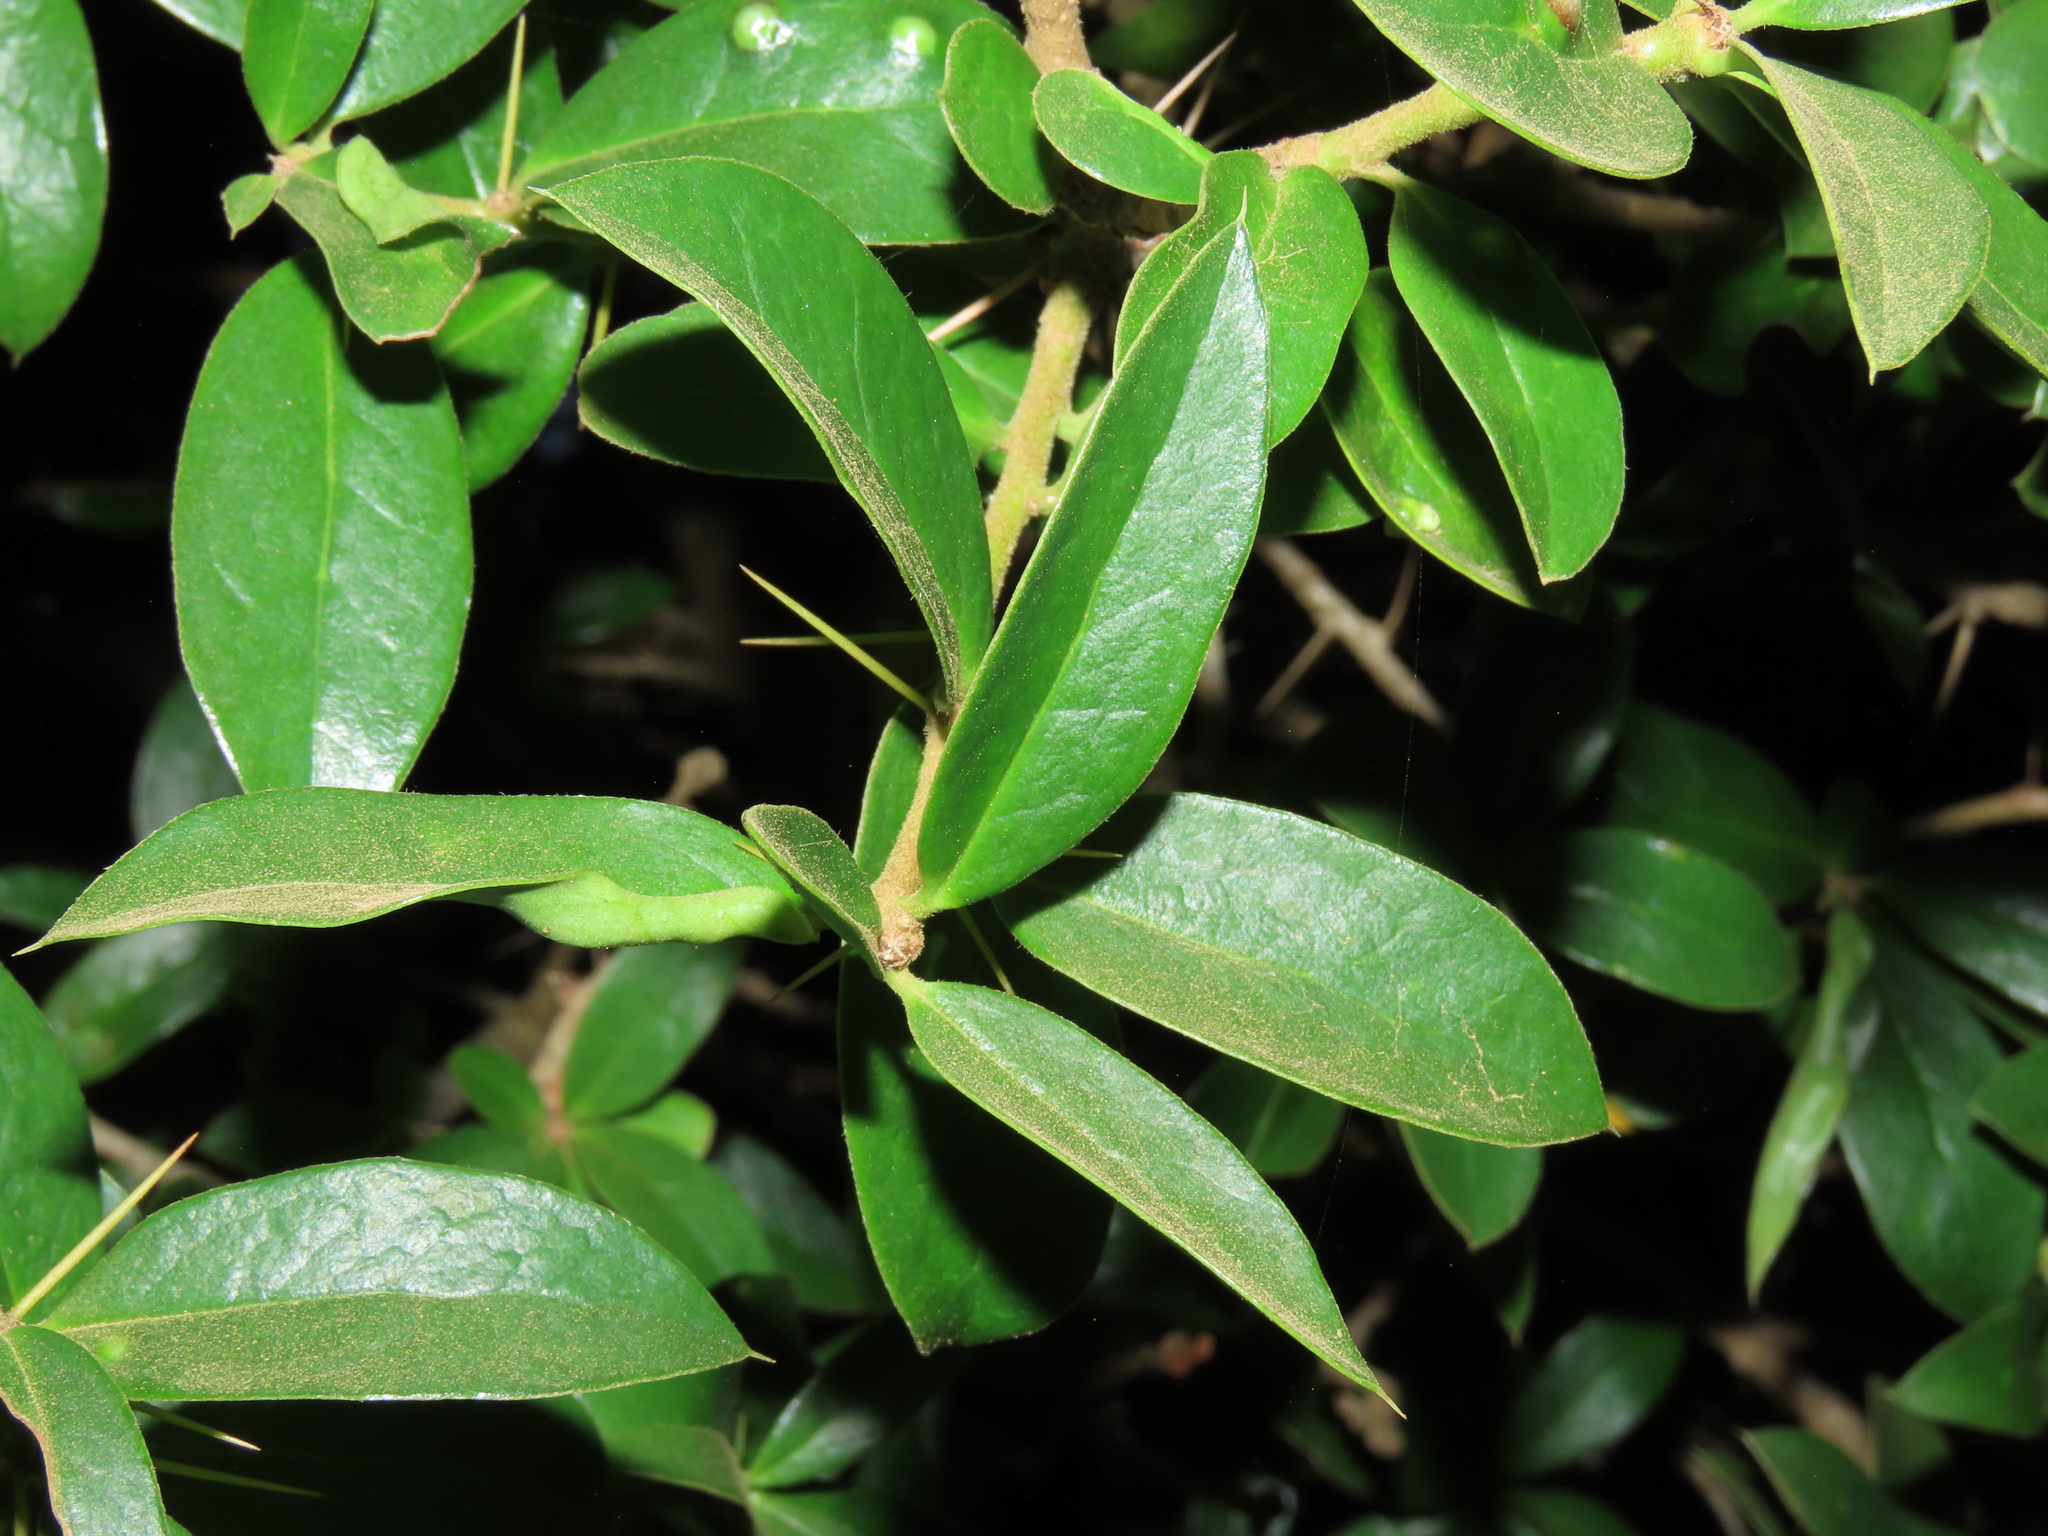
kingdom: Plantae
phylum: Tracheophyta
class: Magnoliopsida
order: Asterales
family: Asteraceae
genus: Archidasyphyllum
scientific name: Archidasyphyllum diacanthoides
